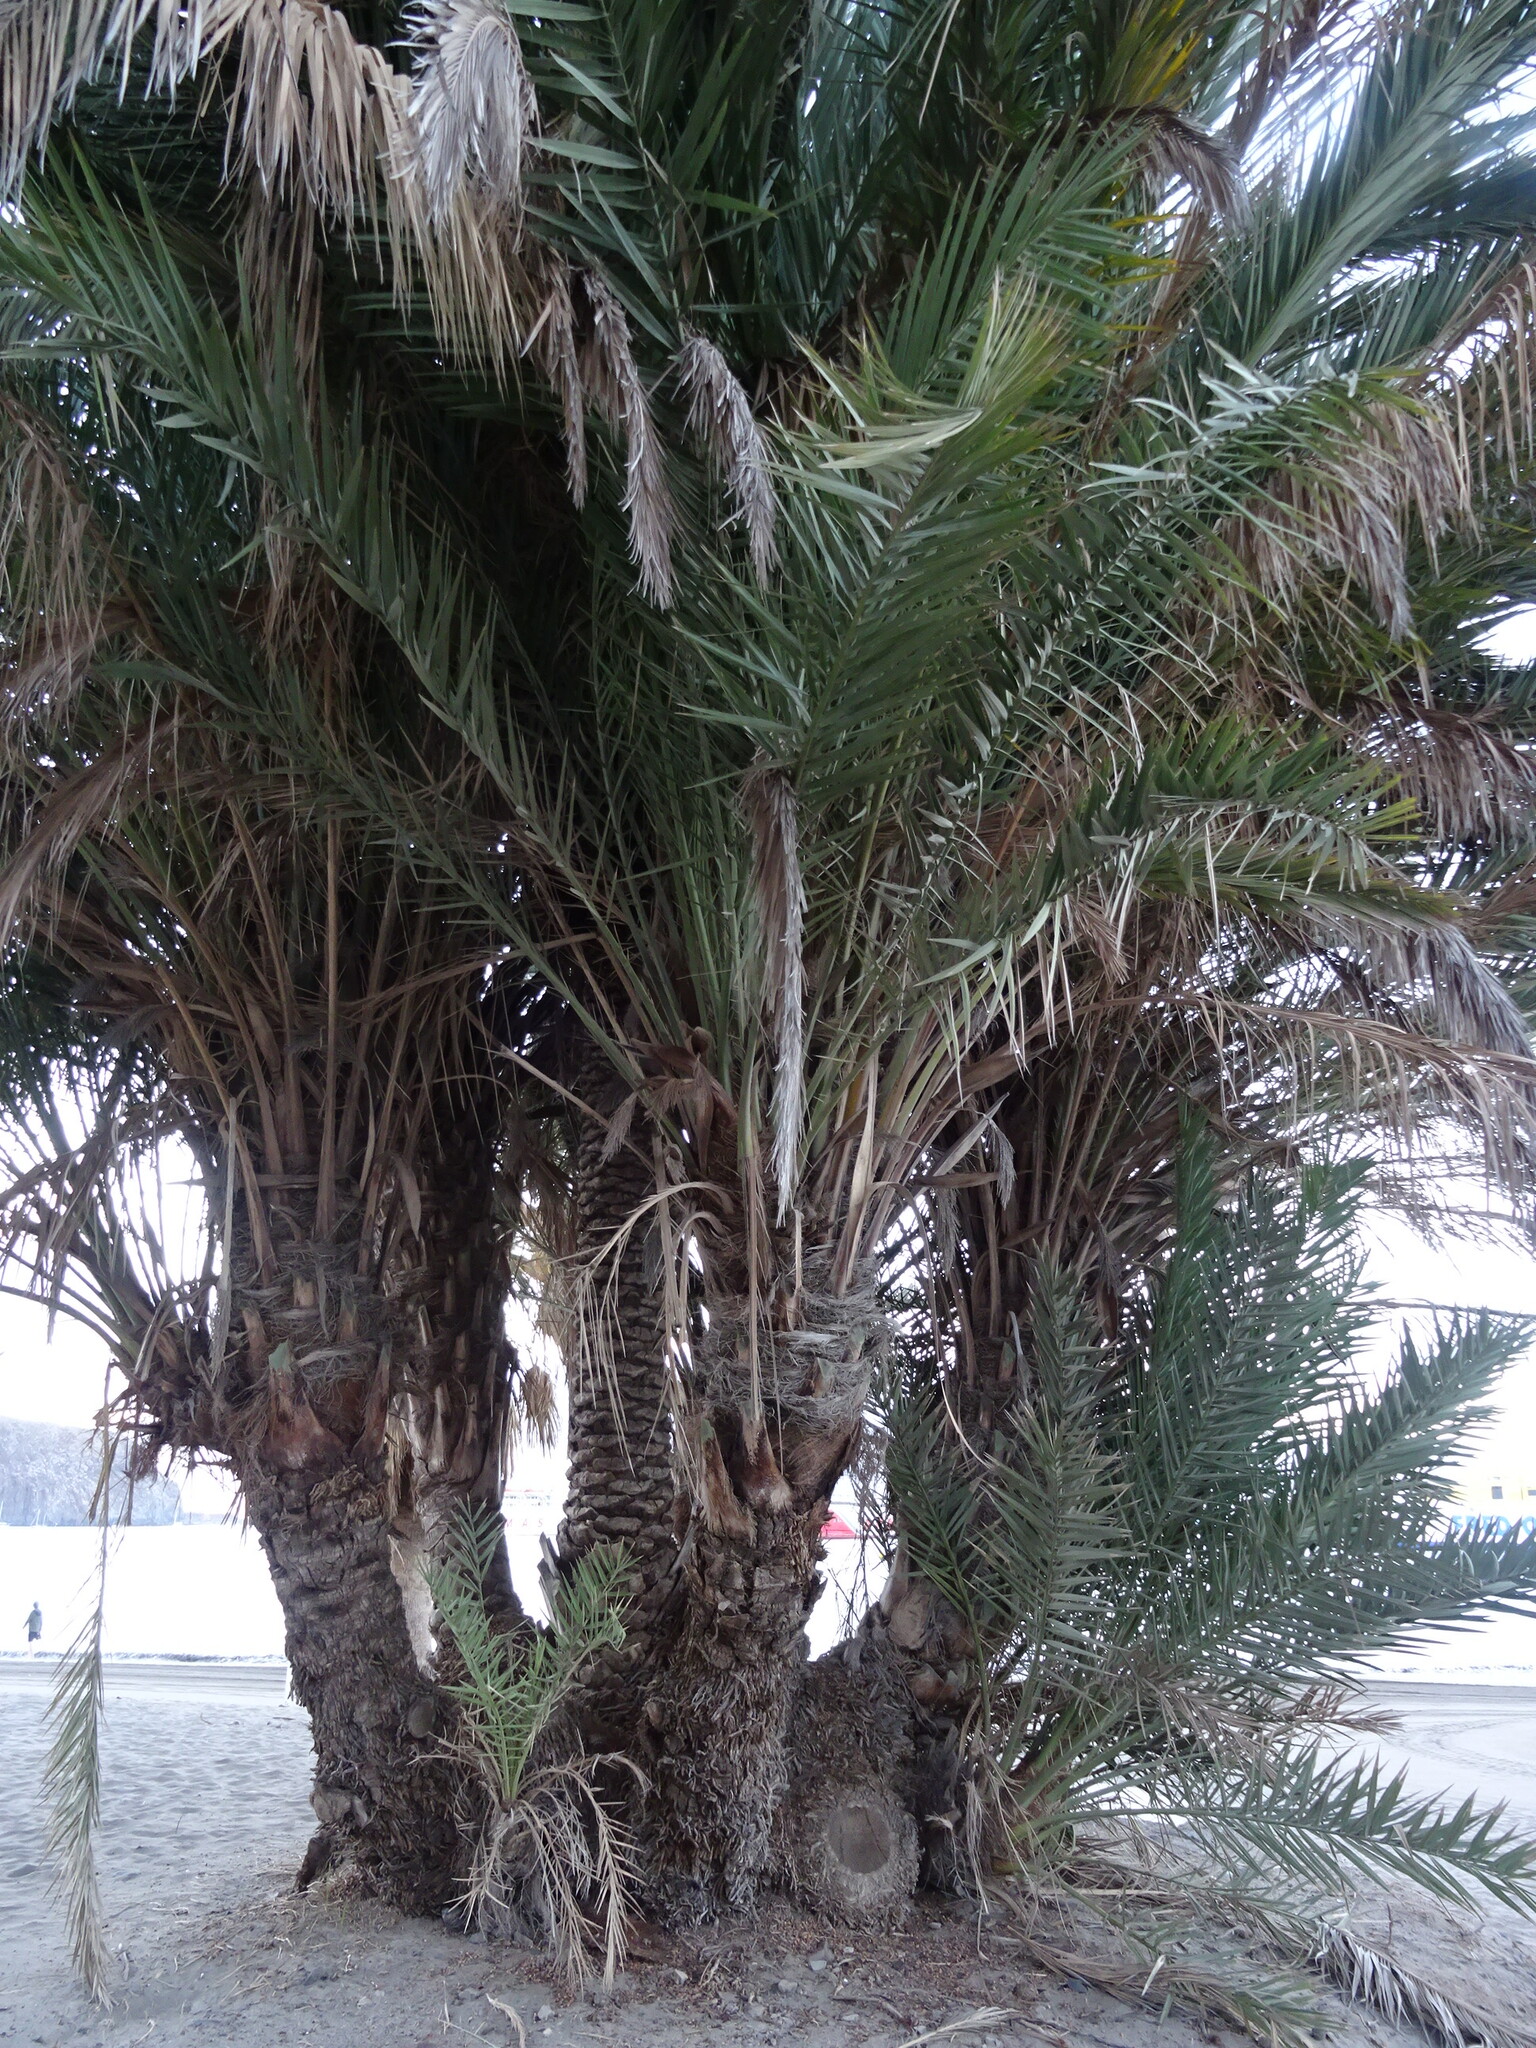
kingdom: Plantae
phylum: Tracheophyta
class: Liliopsida
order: Arecales
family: Arecaceae
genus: Phoenix
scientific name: Phoenix dactylifera
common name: Date palm
